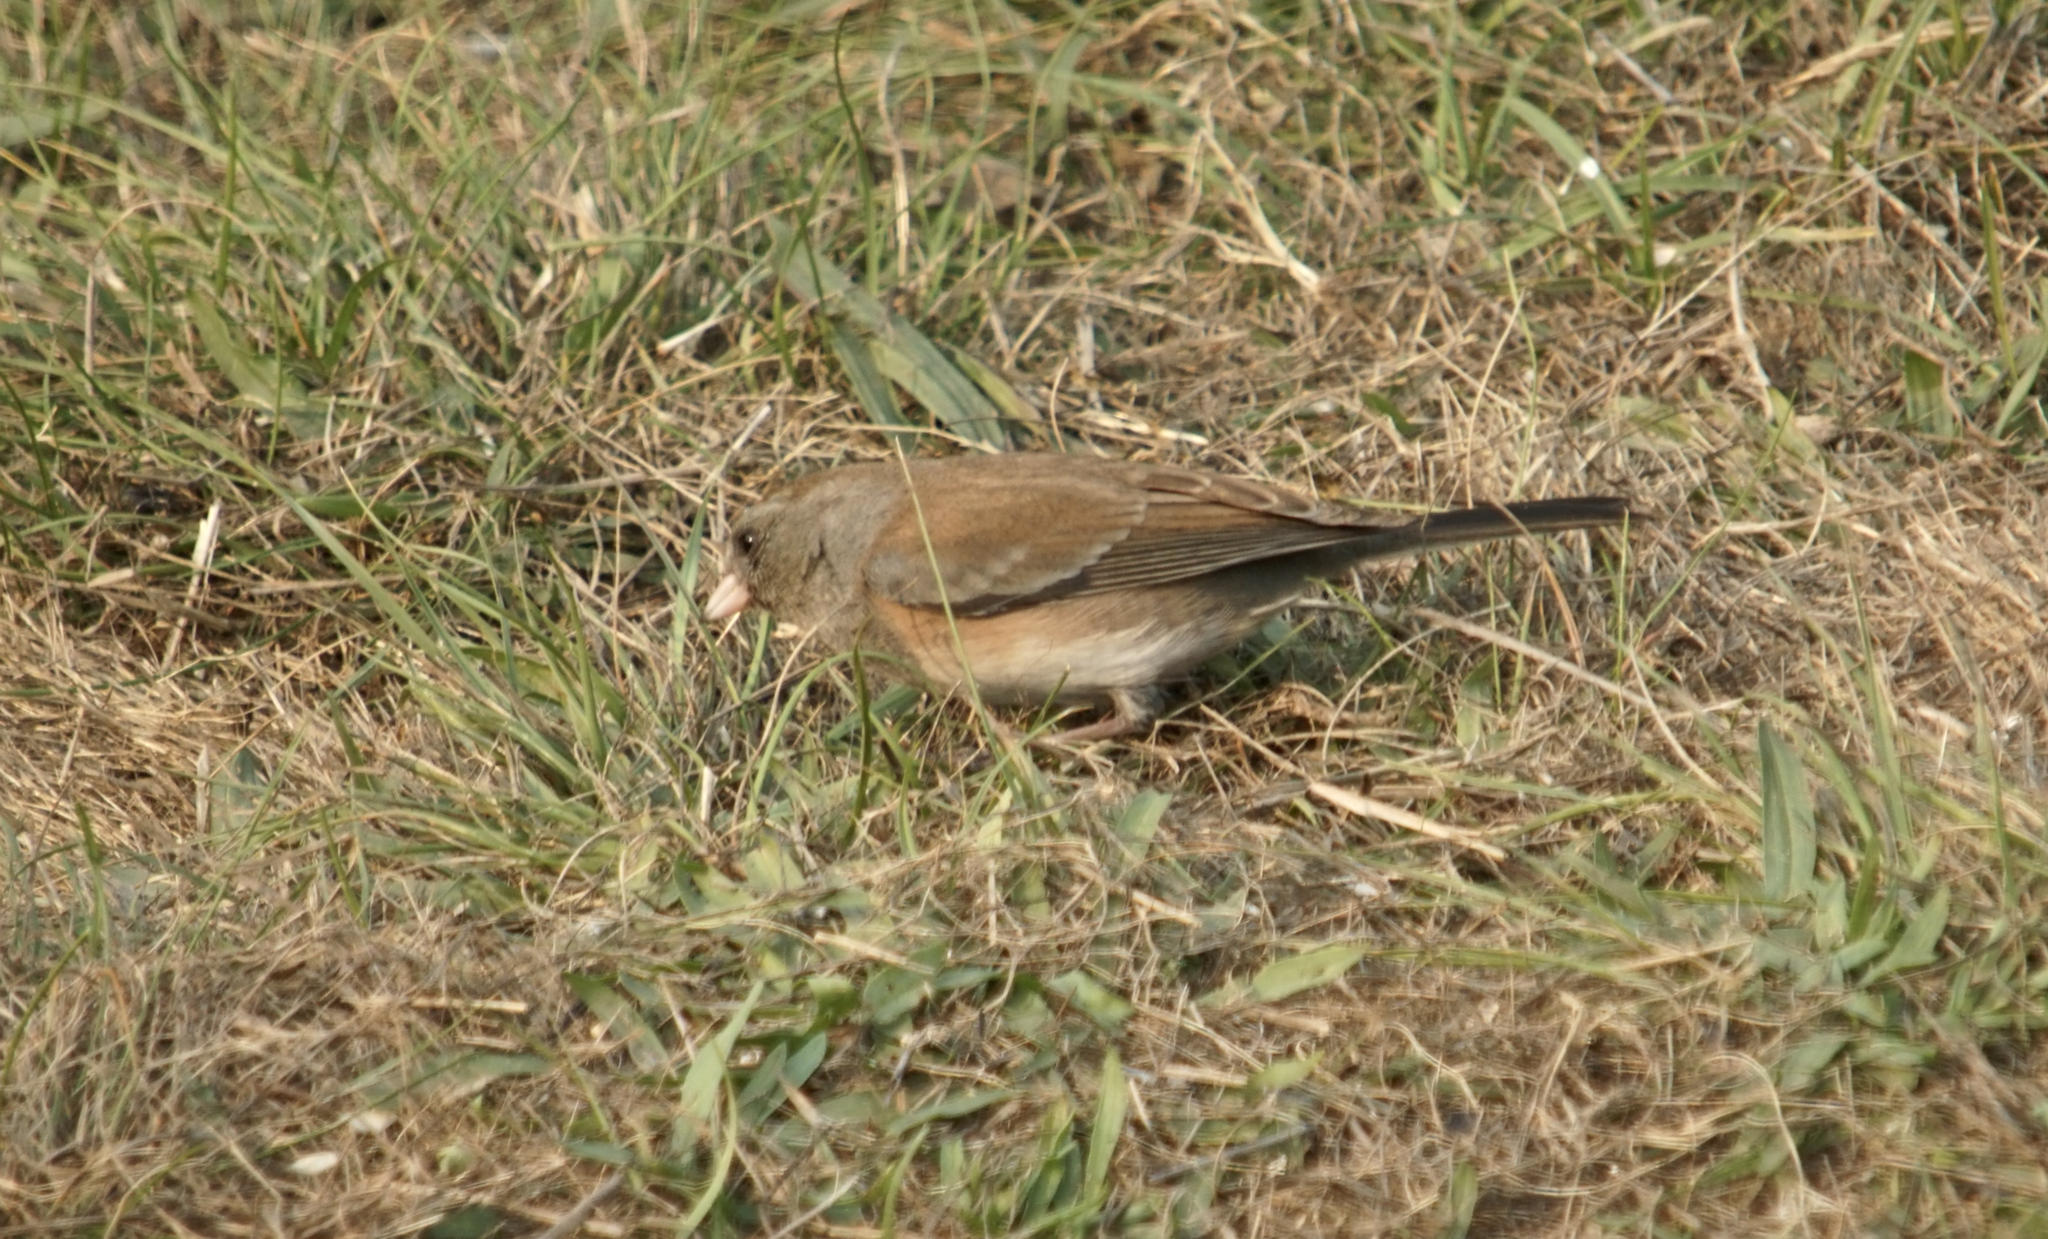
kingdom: Animalia
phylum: Chordata
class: Aves
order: Passeriformes
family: Passerellidae
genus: Junco
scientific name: Junco hyemalis
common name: Dark-eyed junco
